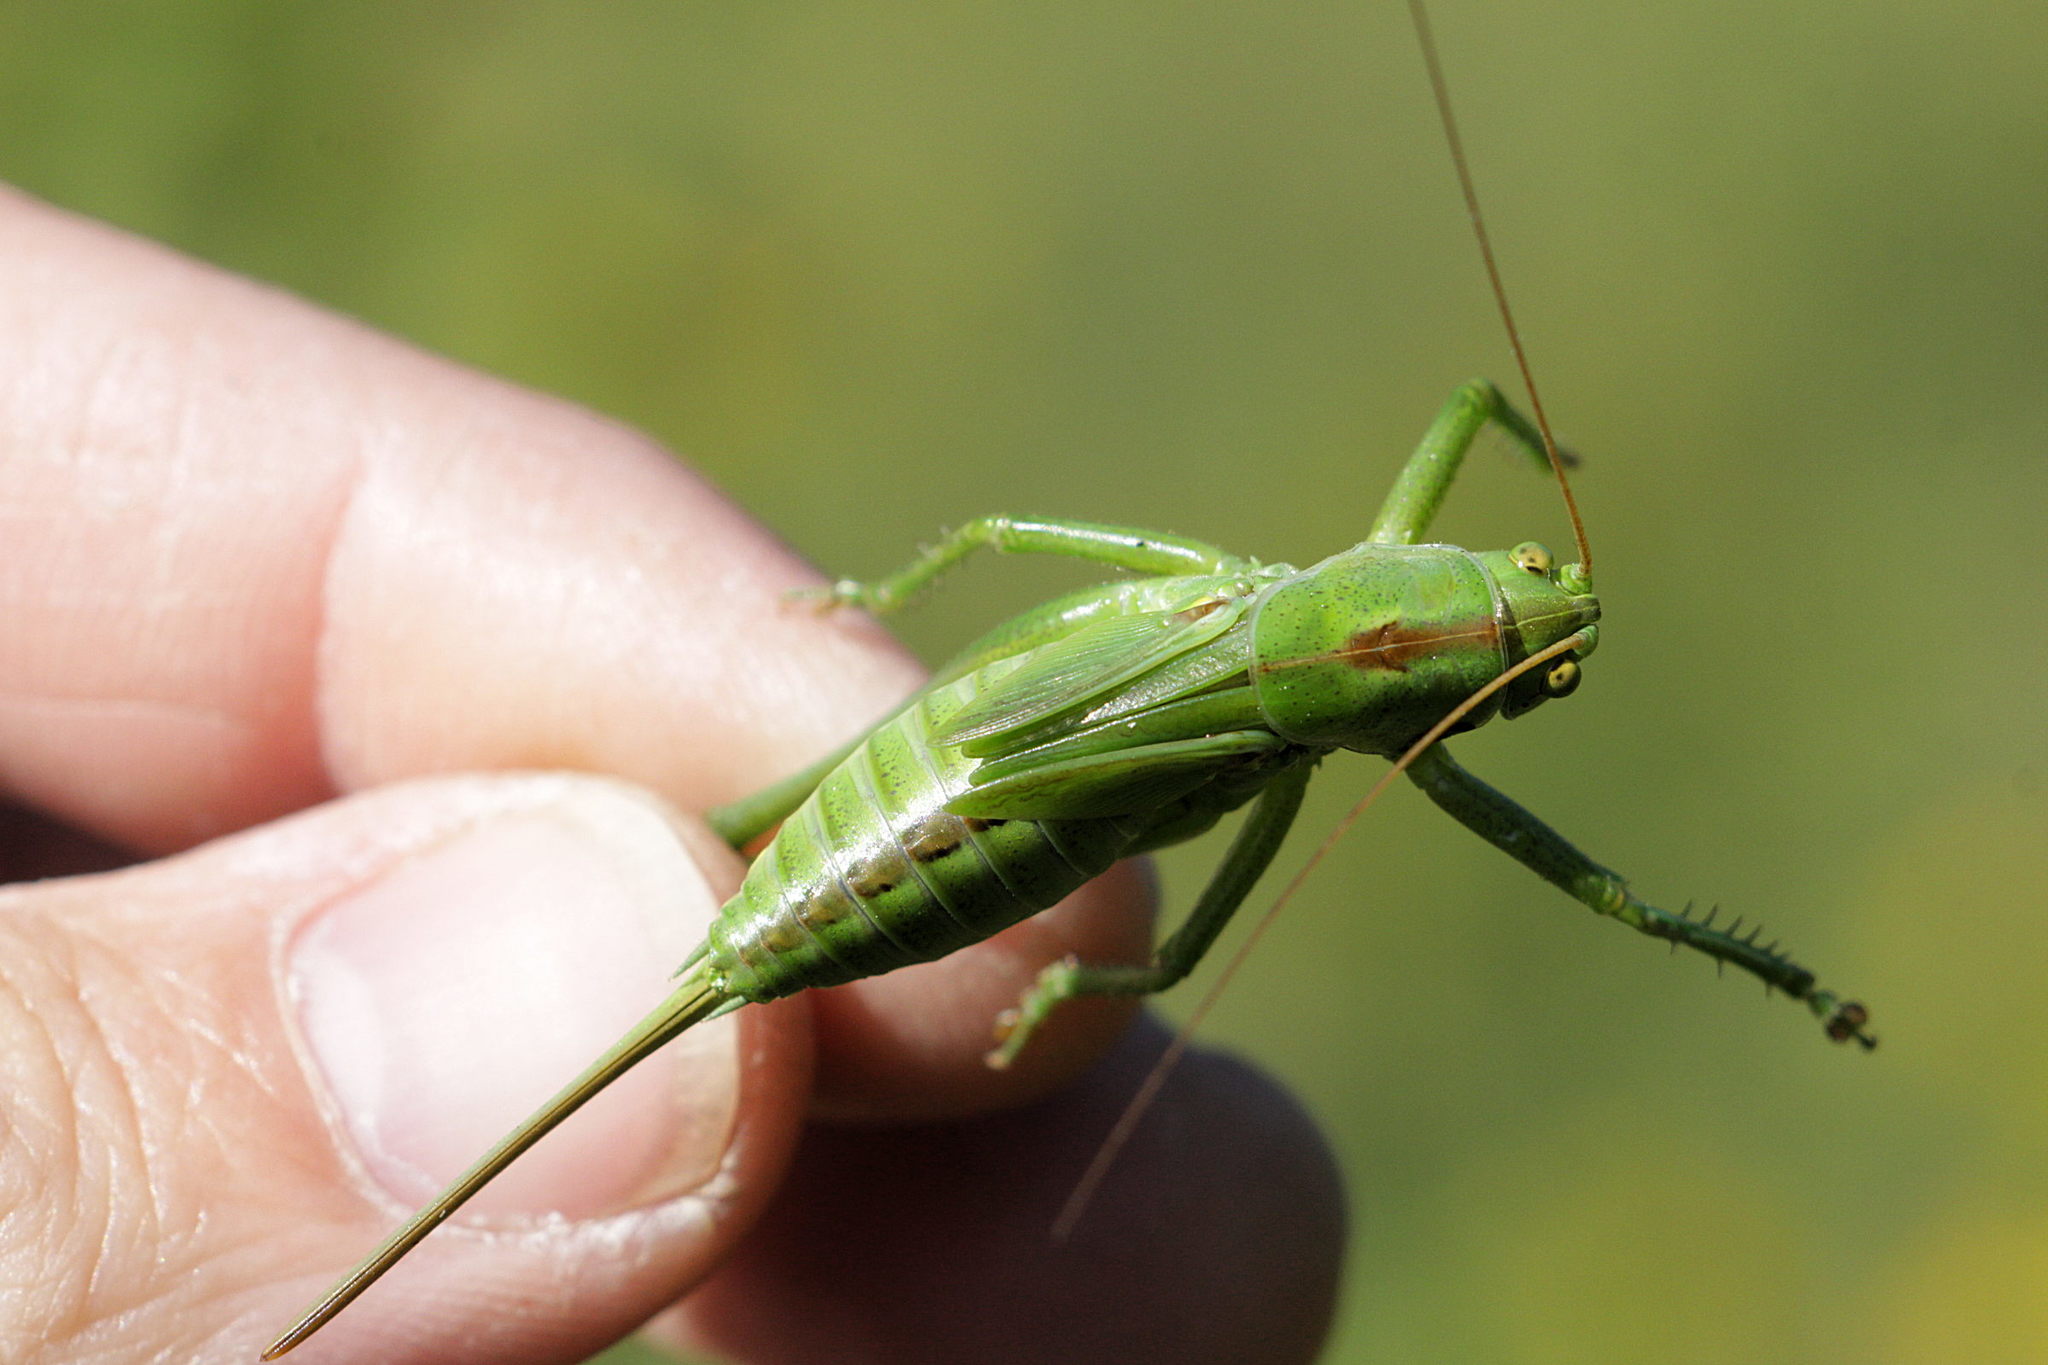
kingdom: Animalia
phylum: Arthropoda
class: Insecta
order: Orthoptera
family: Tettigoniidae
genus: Tettigonia
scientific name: Tettigonia viridissima
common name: Great green bush-cricket
